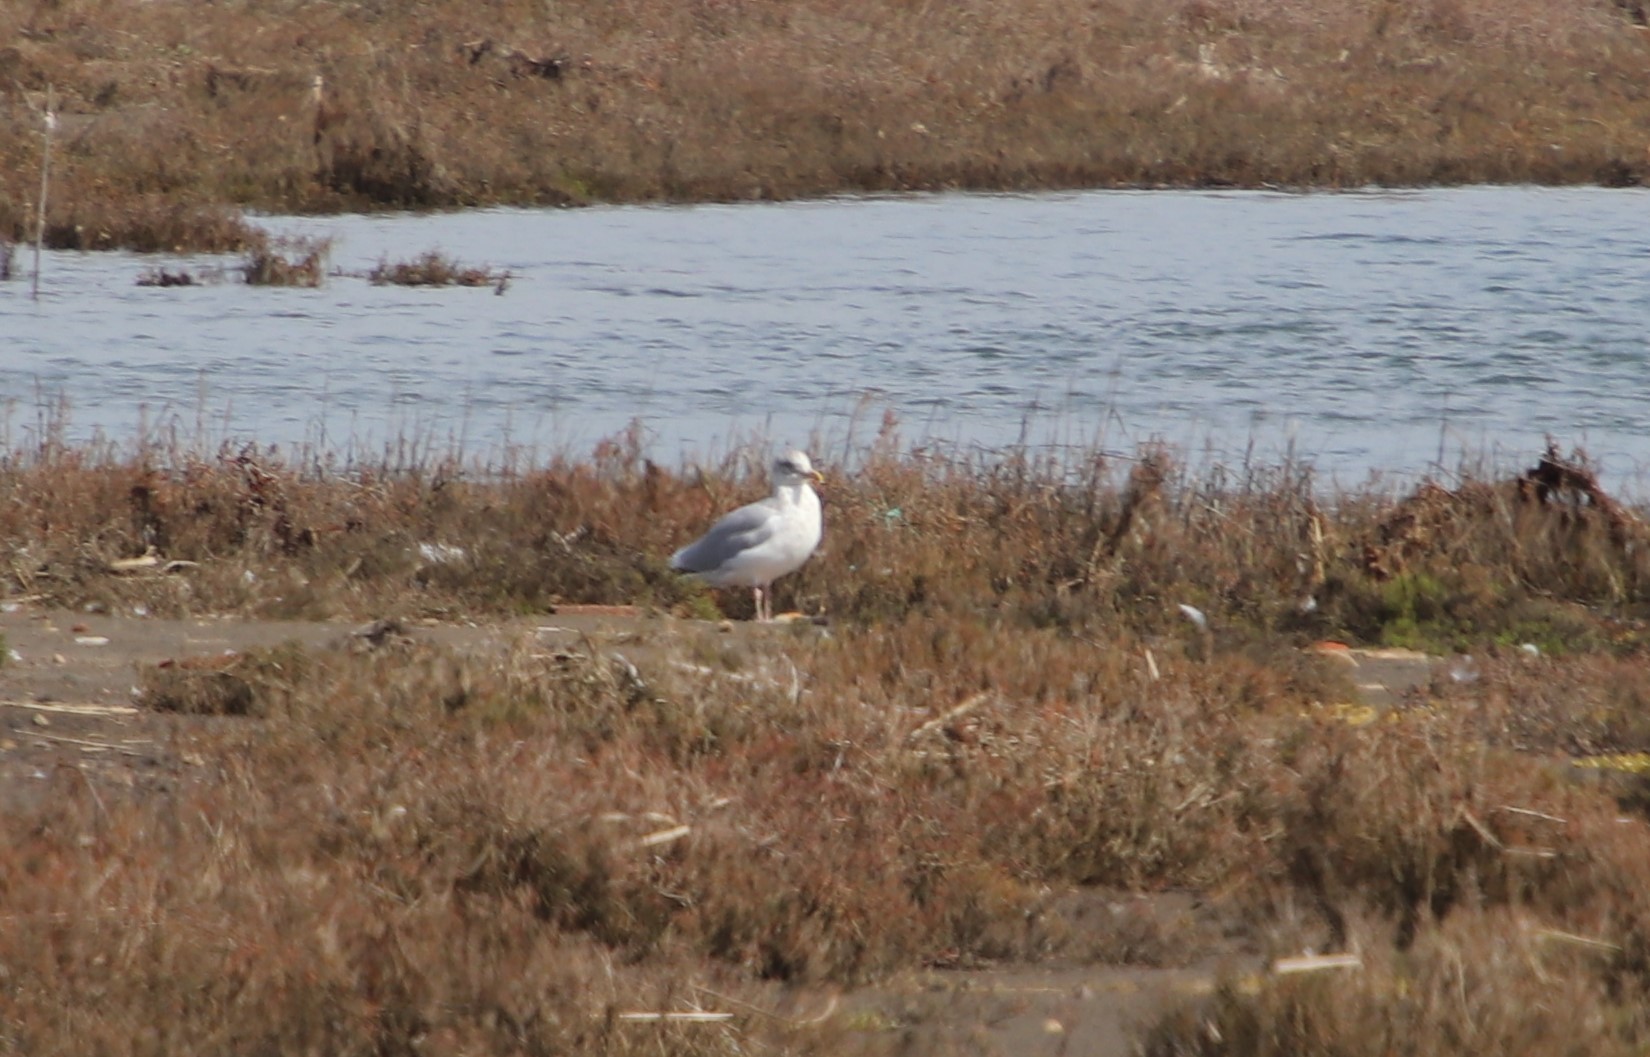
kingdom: Animalia
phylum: Chordata
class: Aves
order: Charadriiformes
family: Laridae
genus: Larus
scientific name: Larus argentatus
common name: Herring gull
